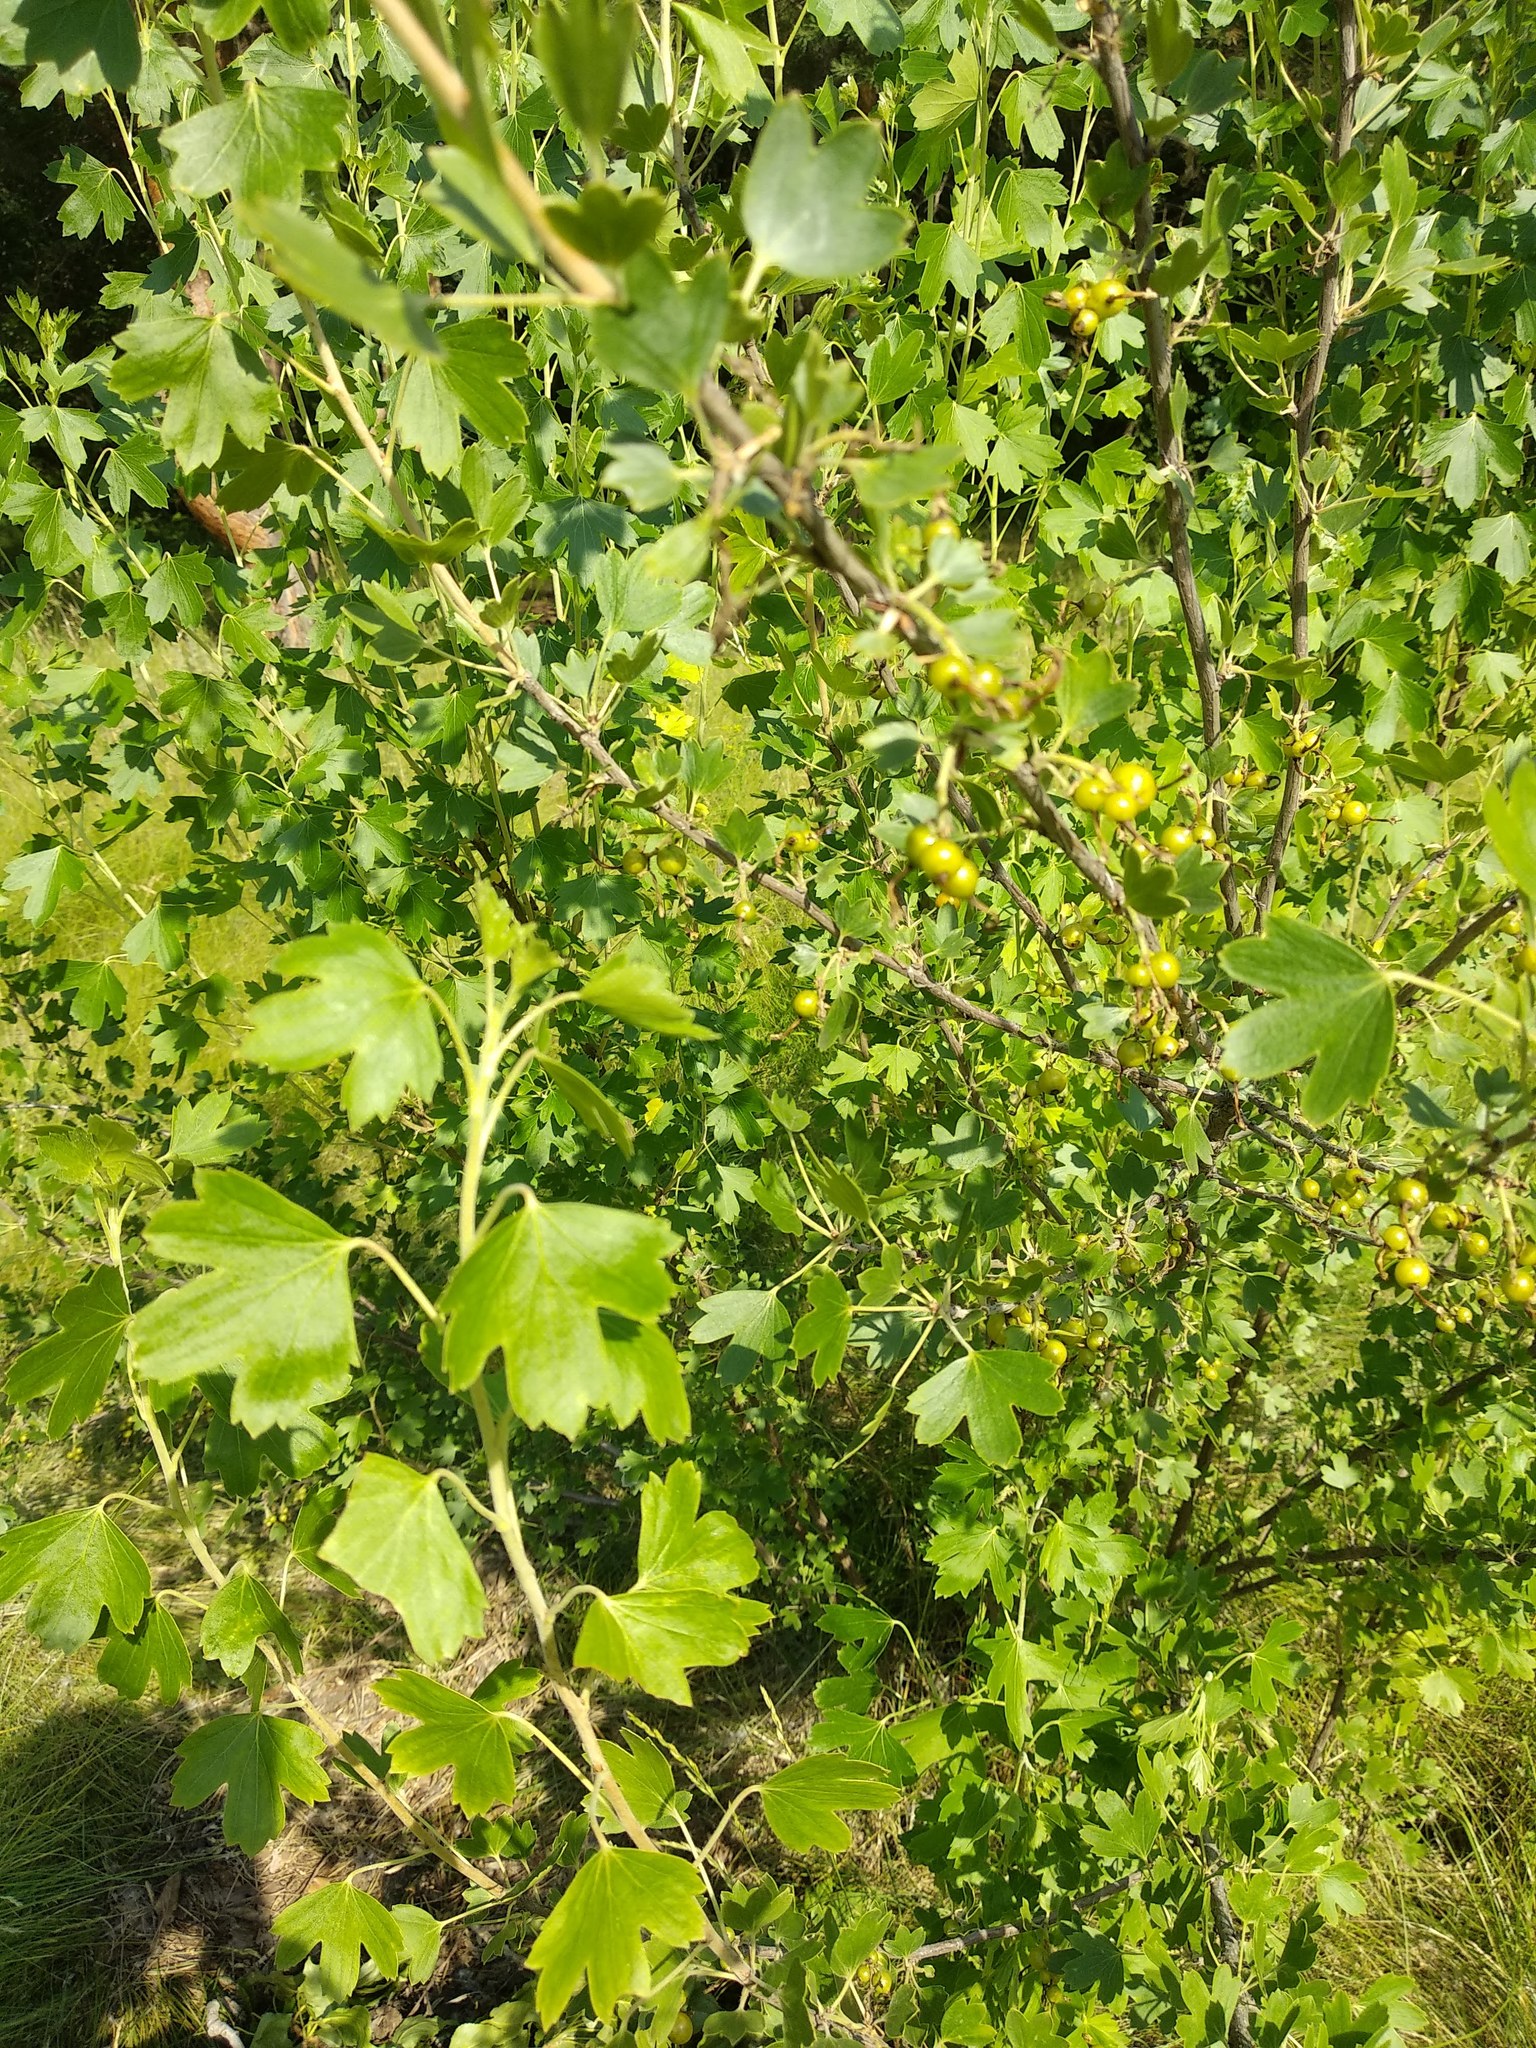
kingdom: Plantae
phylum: Tracheophyta
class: Magnoliopsida
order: Saxifragales
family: Grossulariaceae
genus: Ribes
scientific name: Ribes aureum
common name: Golden currant
